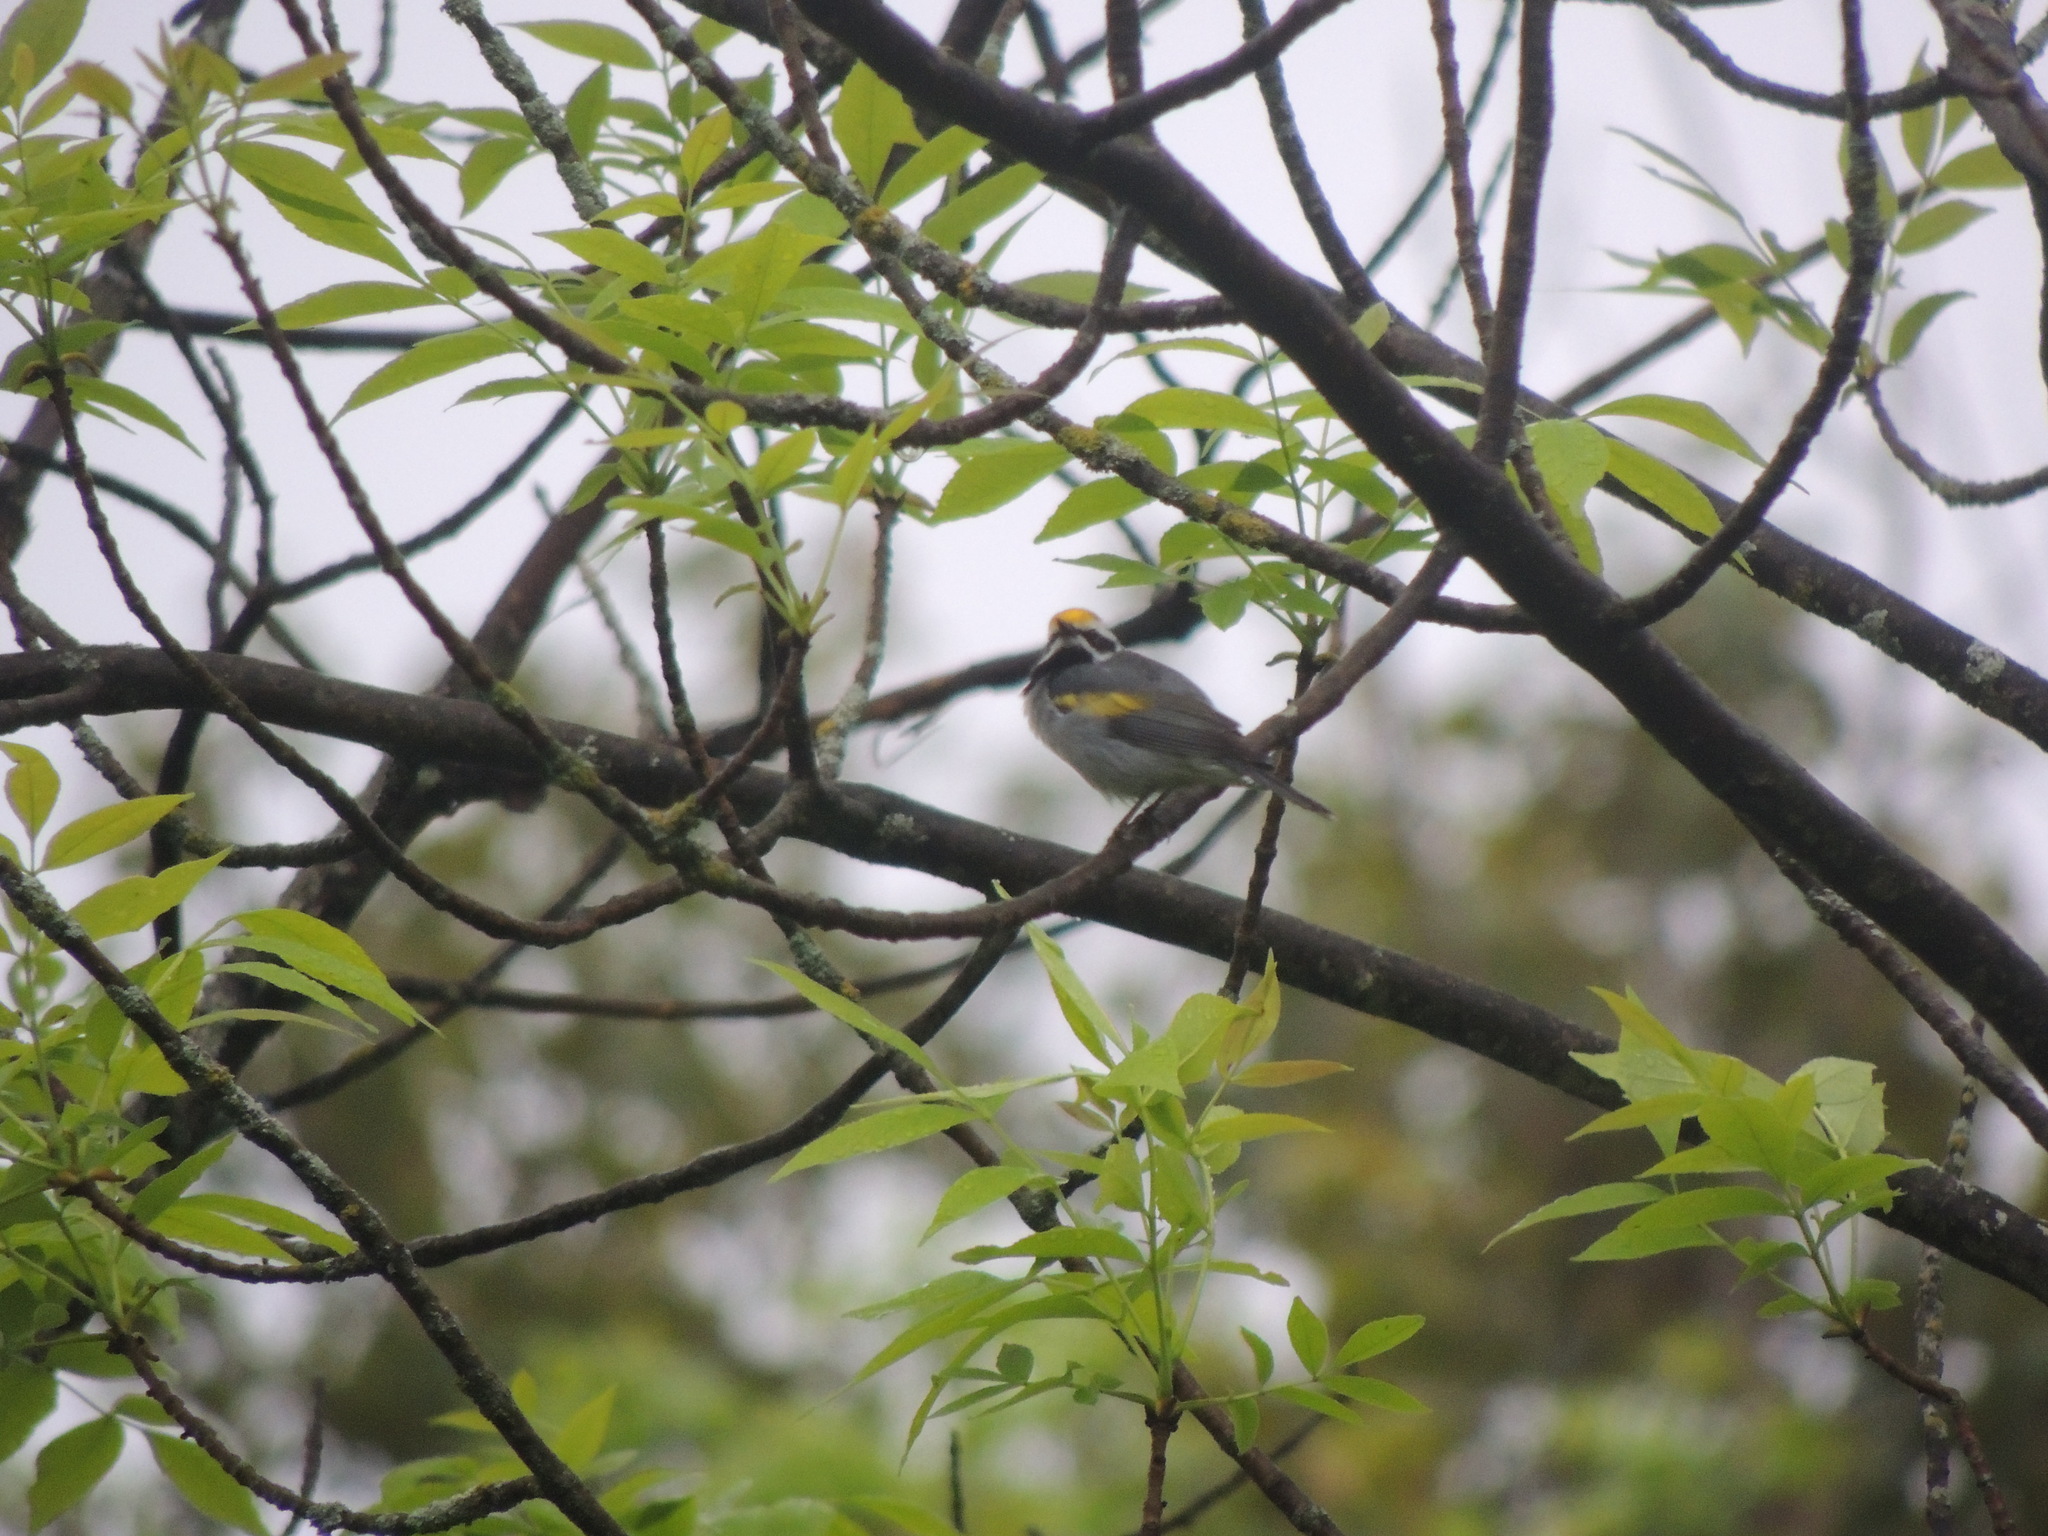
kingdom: Animalia
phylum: Chordata
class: Aves
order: Passeriformes
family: Parulidae
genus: Vermivora
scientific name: Vermivora chrysoptera
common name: Golden-winged warbler
